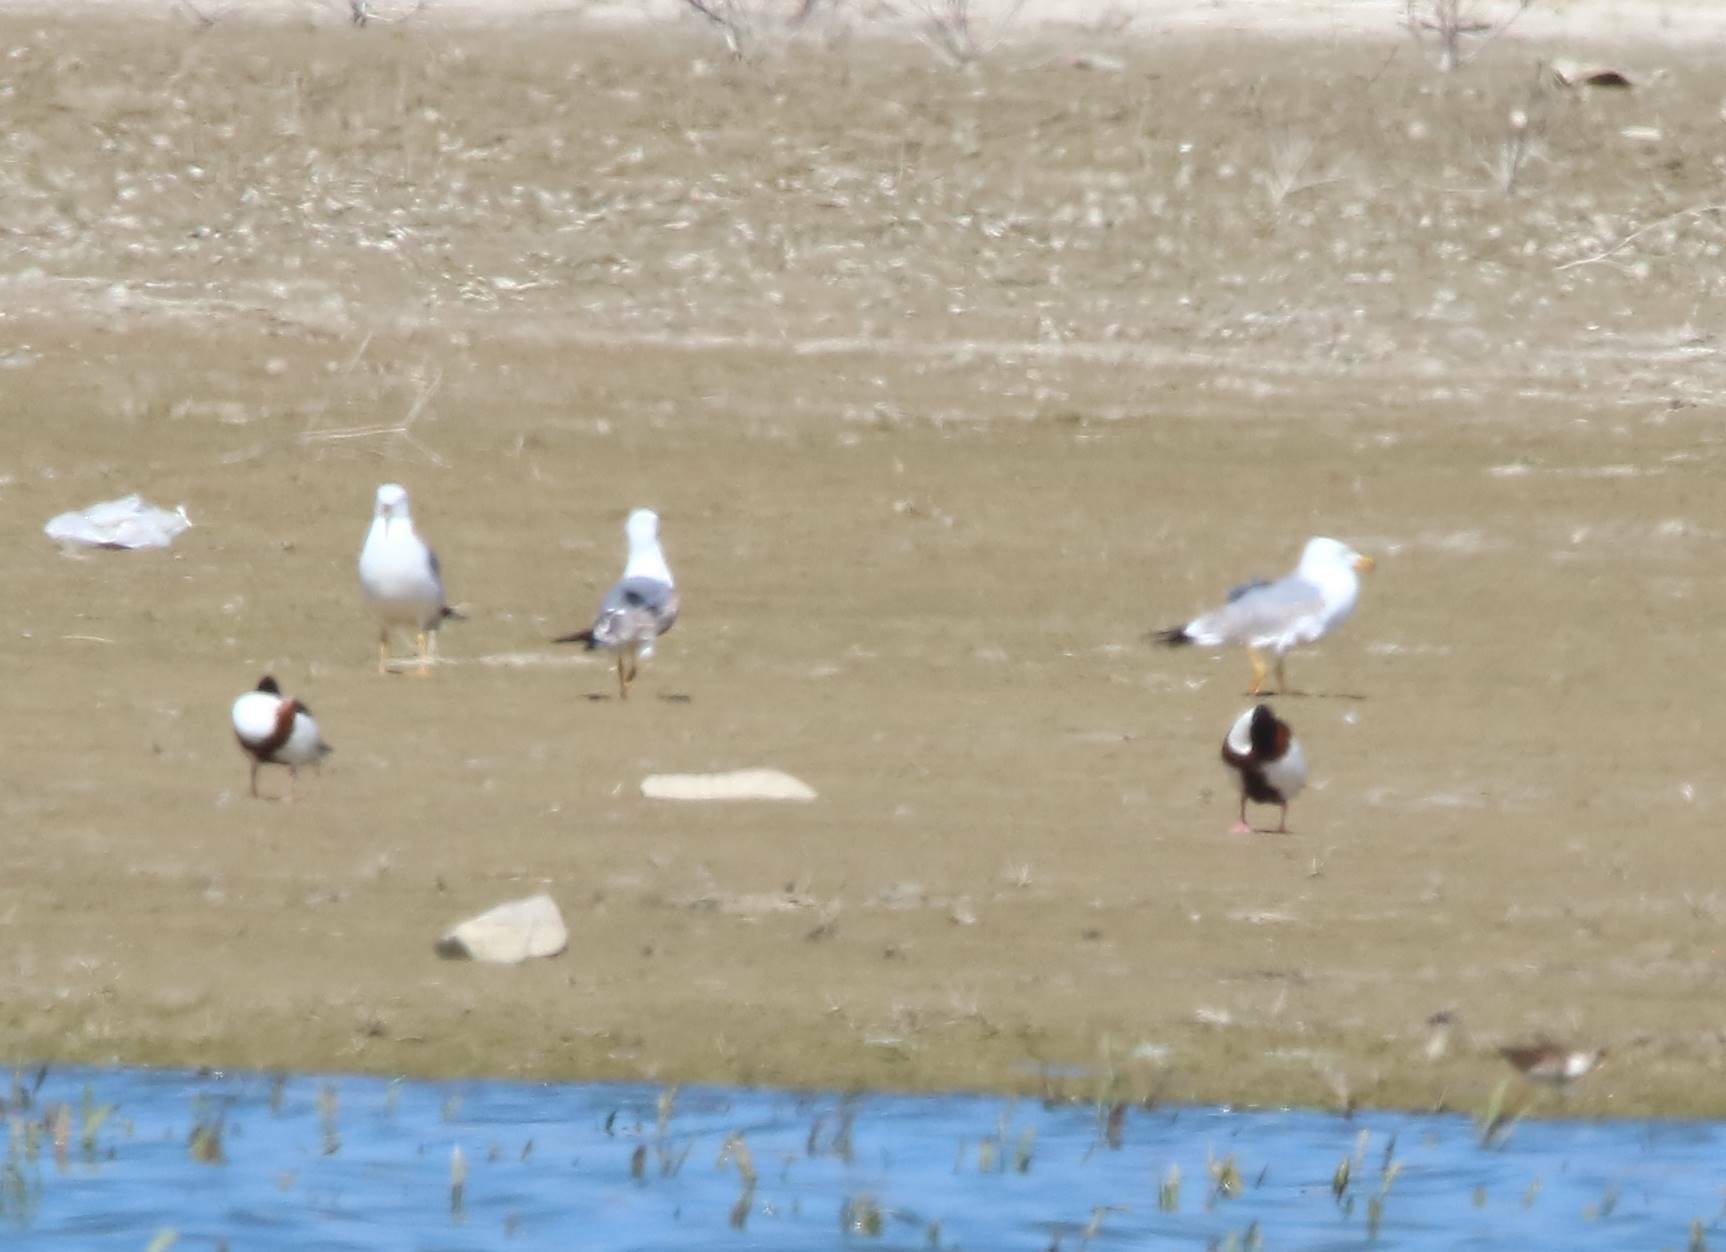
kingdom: Animalia
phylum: Chordata
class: Aves
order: Charadriiformes
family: Laridae
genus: Larus
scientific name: Larus michahellis
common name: Yellow-legged gull
